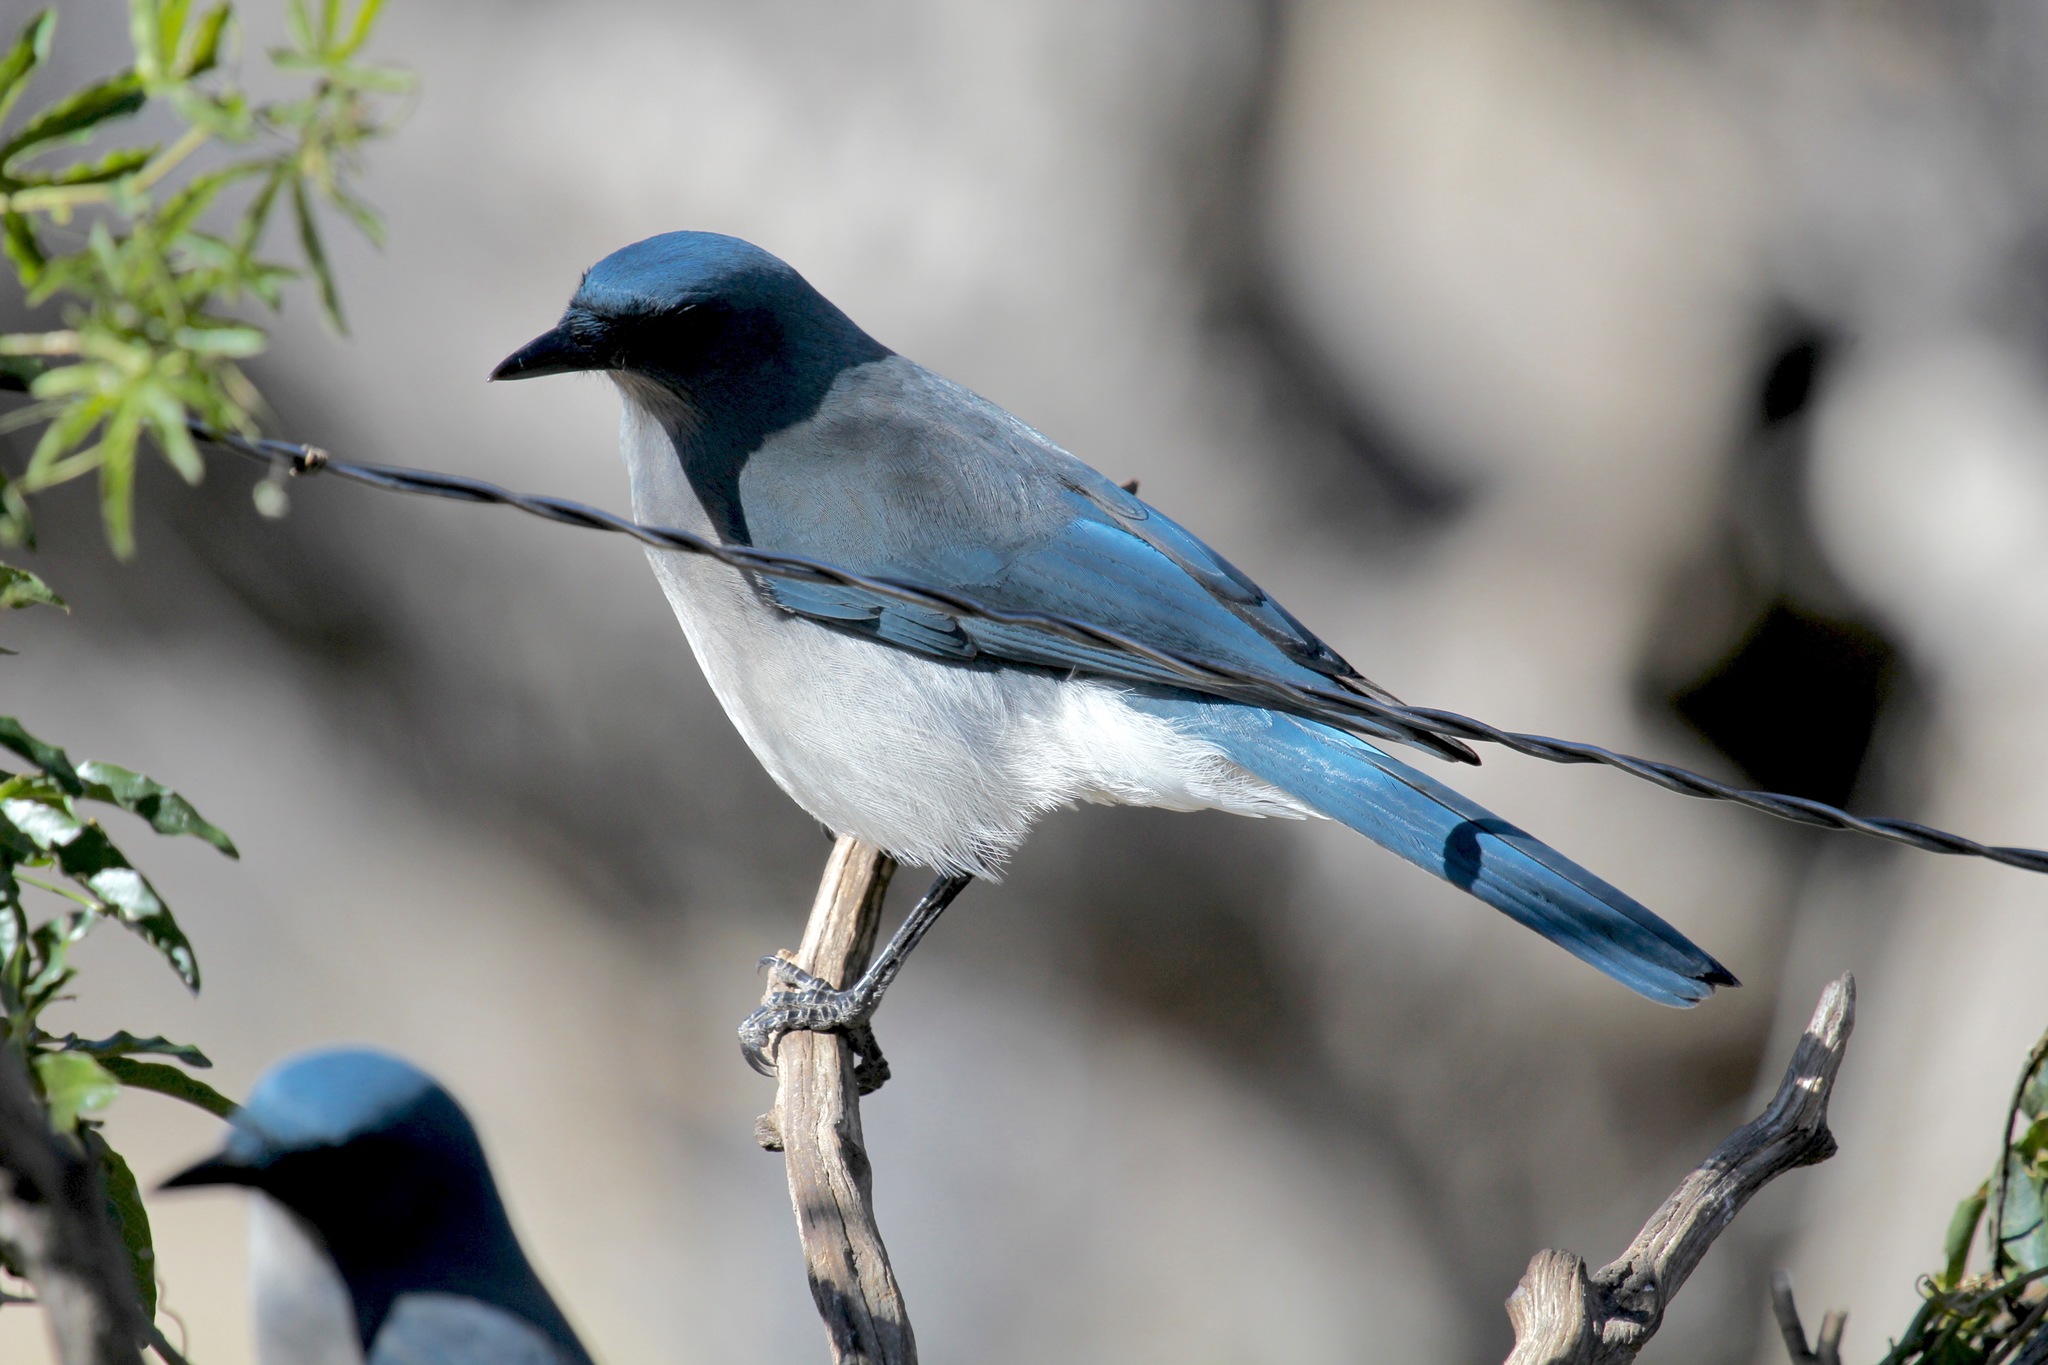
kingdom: Animalia
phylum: Chordata
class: Aves
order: Passeriformes
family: Corvidae
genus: Aphelocoma
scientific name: Aphelocoma wollweberi
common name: Mexican jay
